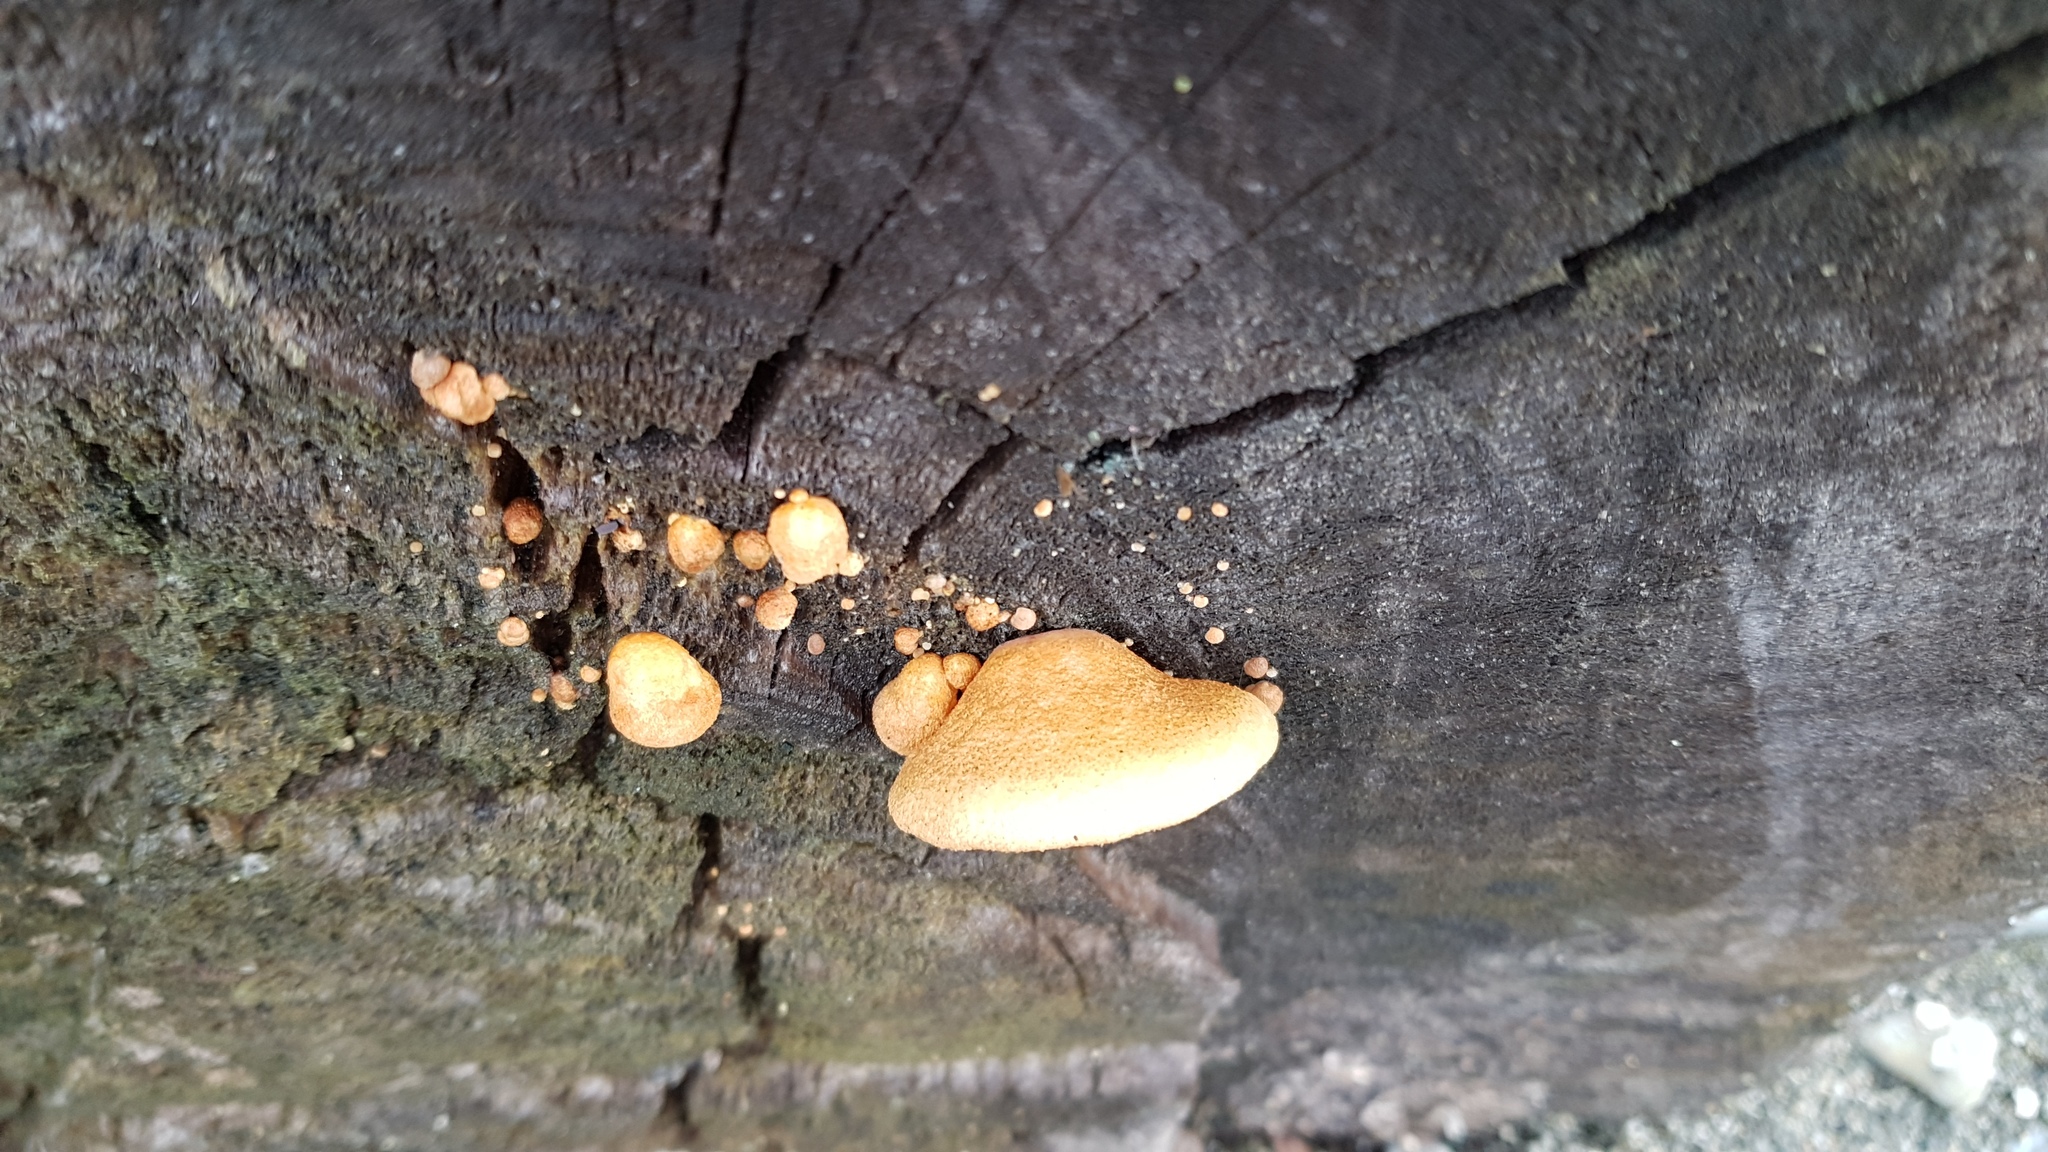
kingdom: Fungi
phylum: Basidiomycota
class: Agaricomycetes
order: Agaricales
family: Crepidotaceae
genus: Crepidotus
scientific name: Crepidotus mollis
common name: Peeling oysterling
